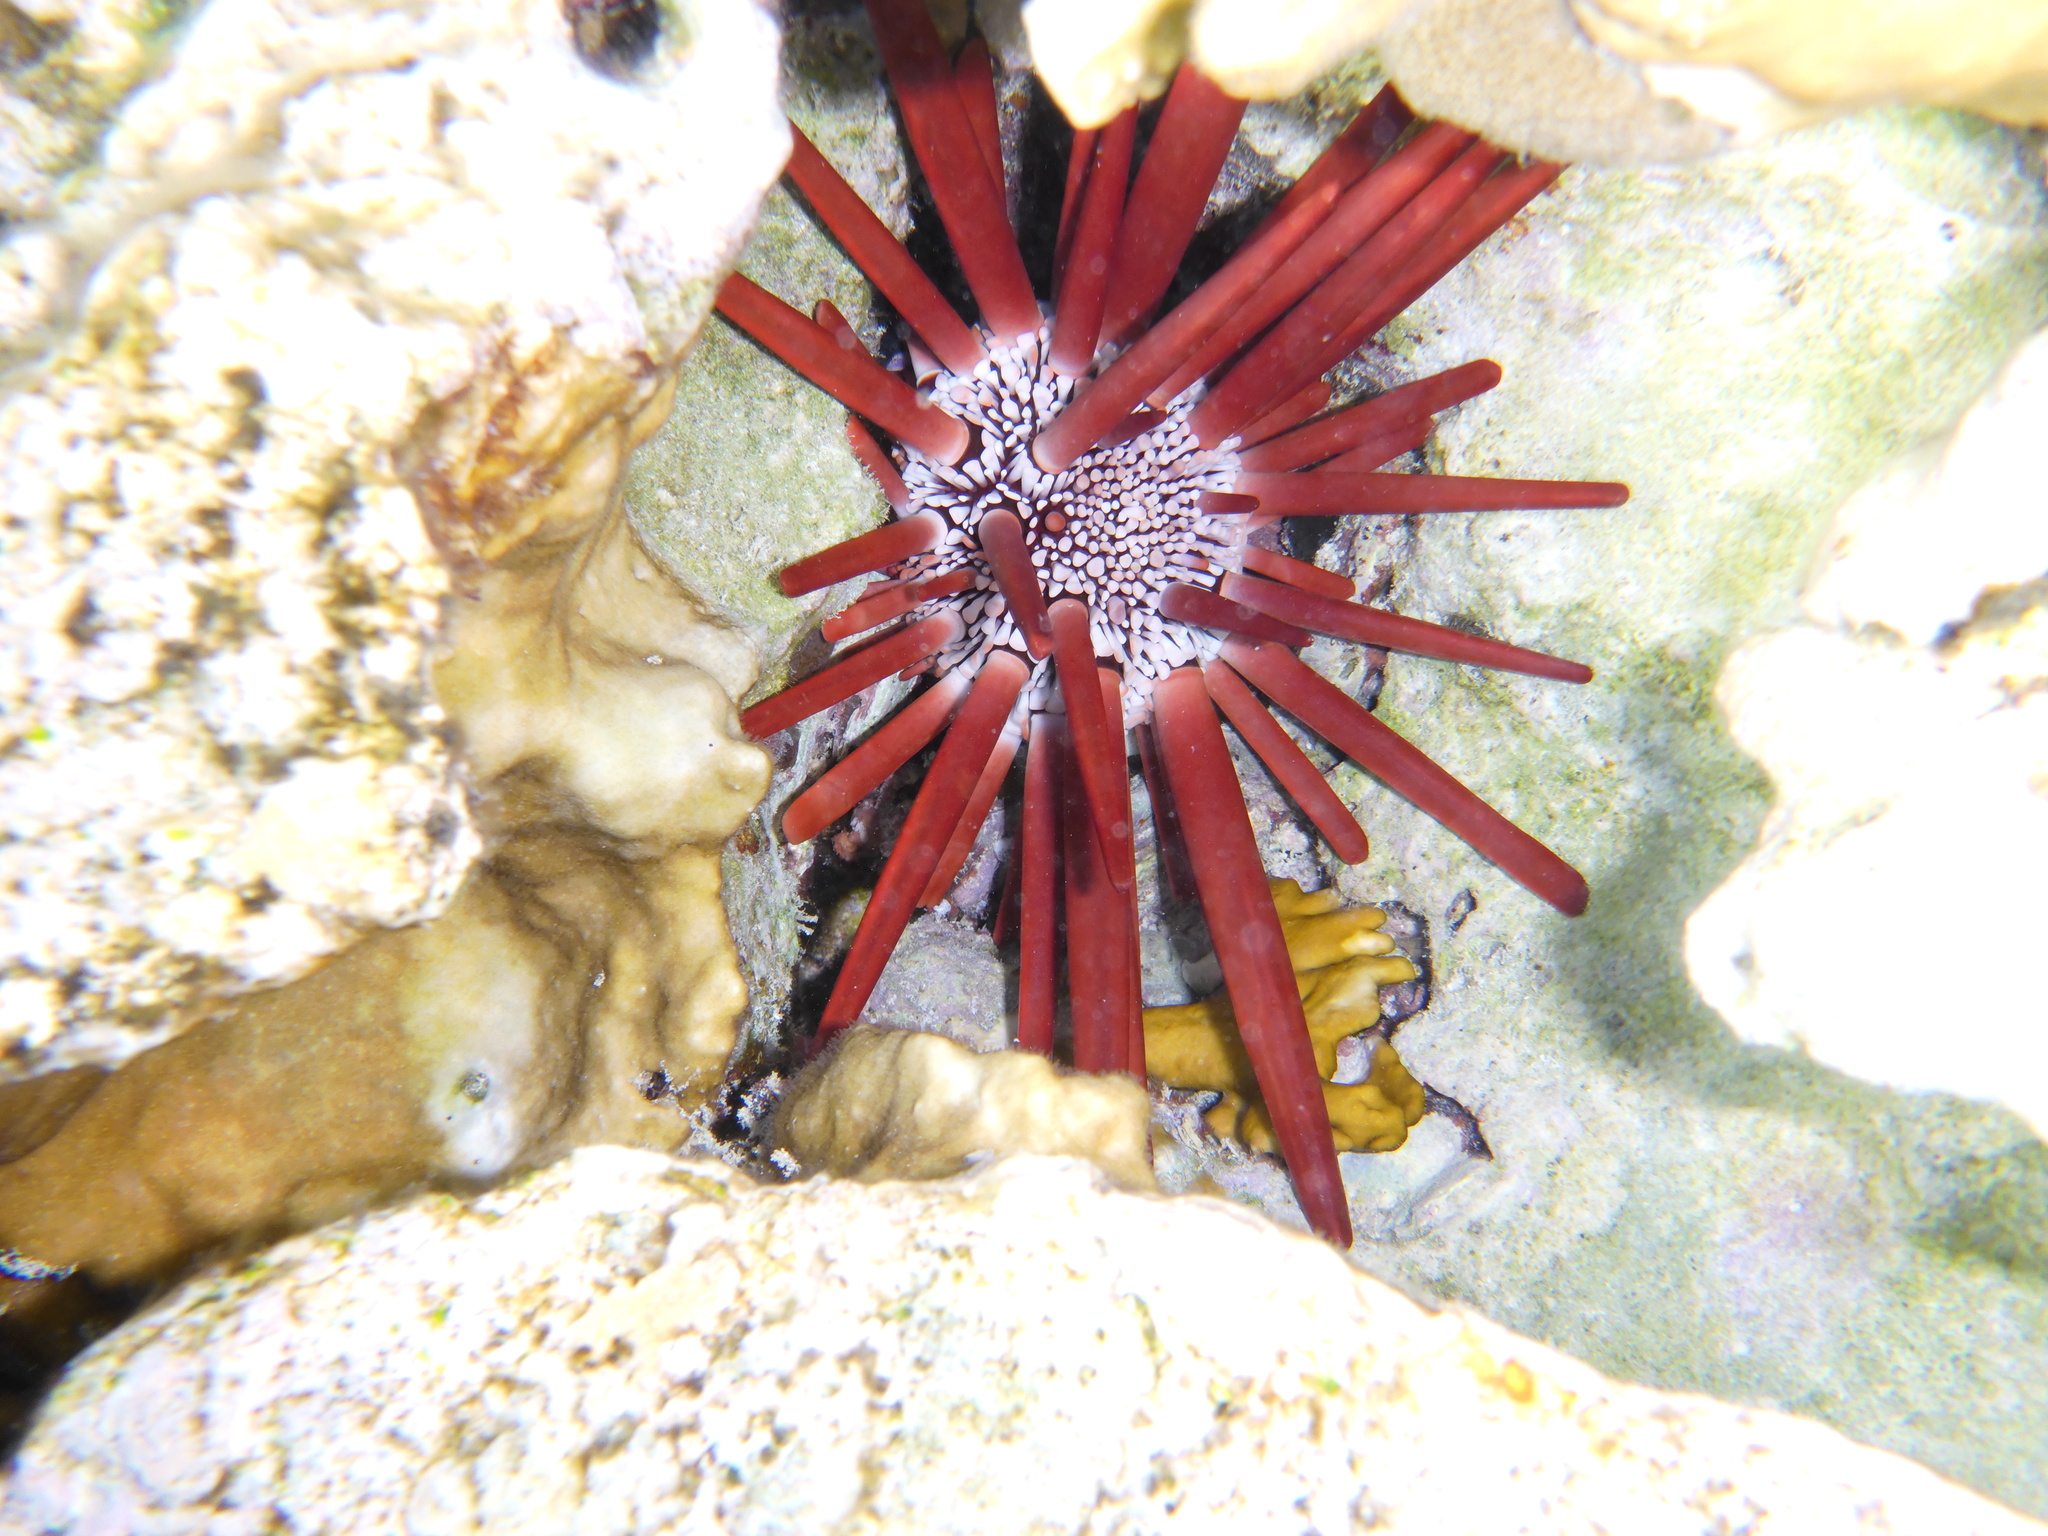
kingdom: Animalia
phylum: Echinodermata
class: Echinoidea
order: Camarodonta
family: Echinometridae
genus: Heterocentrotus
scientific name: Heterocentrotus mamillatus
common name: Slate pencil urchin
